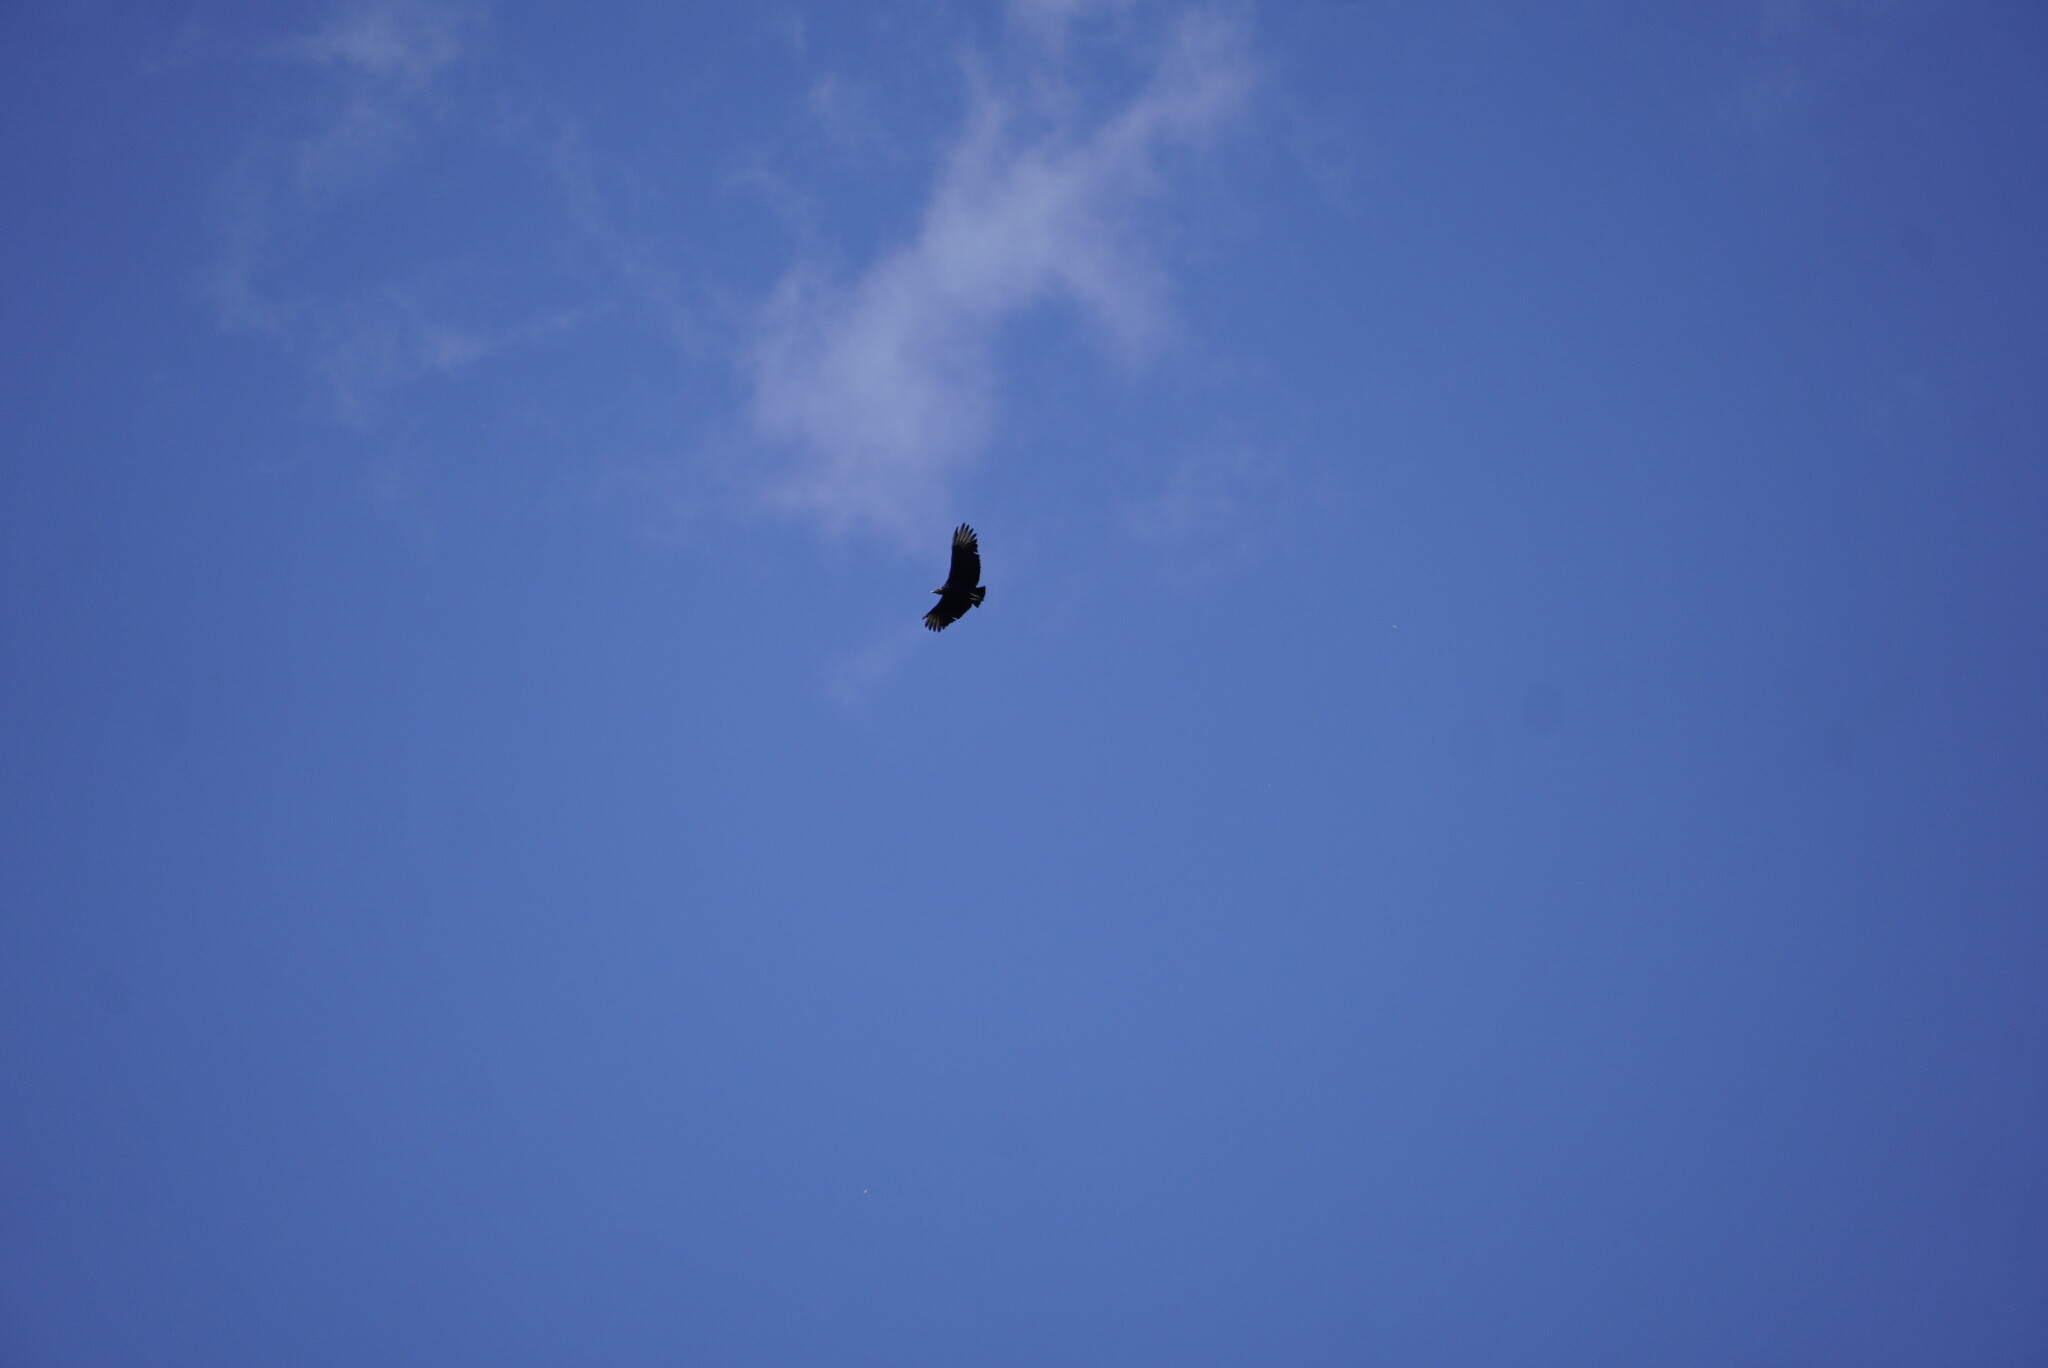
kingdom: Animalia
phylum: Chordata
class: Aves
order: Accipitriformes
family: Cathartidae
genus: Coragyps
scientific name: Coragyps atratus
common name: Black vulture
